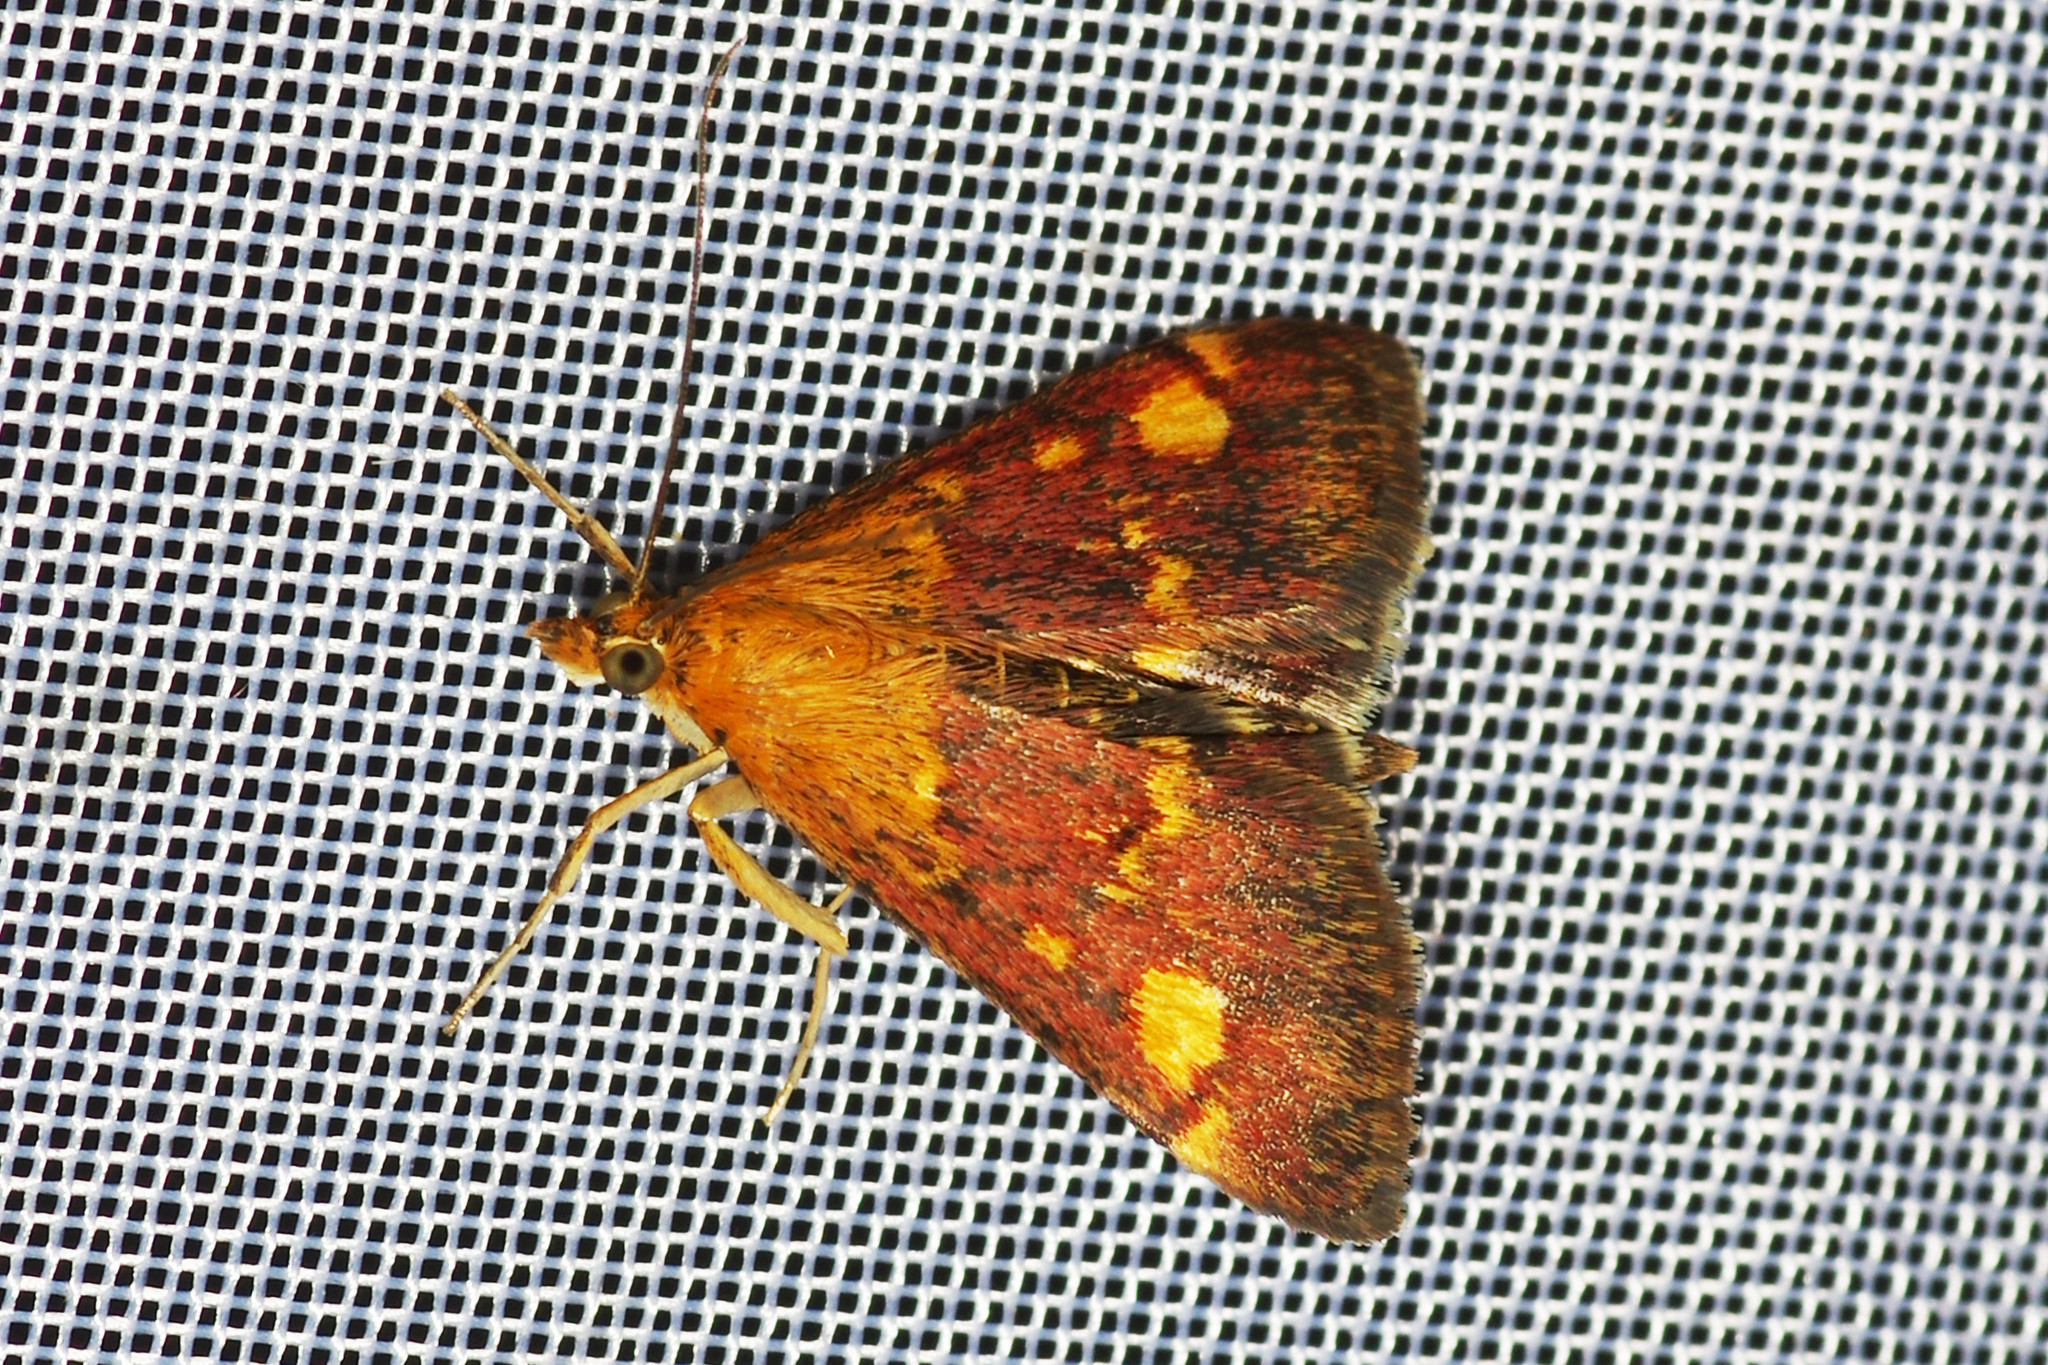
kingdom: Animalia
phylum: Arthropoda
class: Insecta
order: Lepidoptera
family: Crambidae
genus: Pyrausta
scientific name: Pyrausta aurata
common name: Small purple & gold
